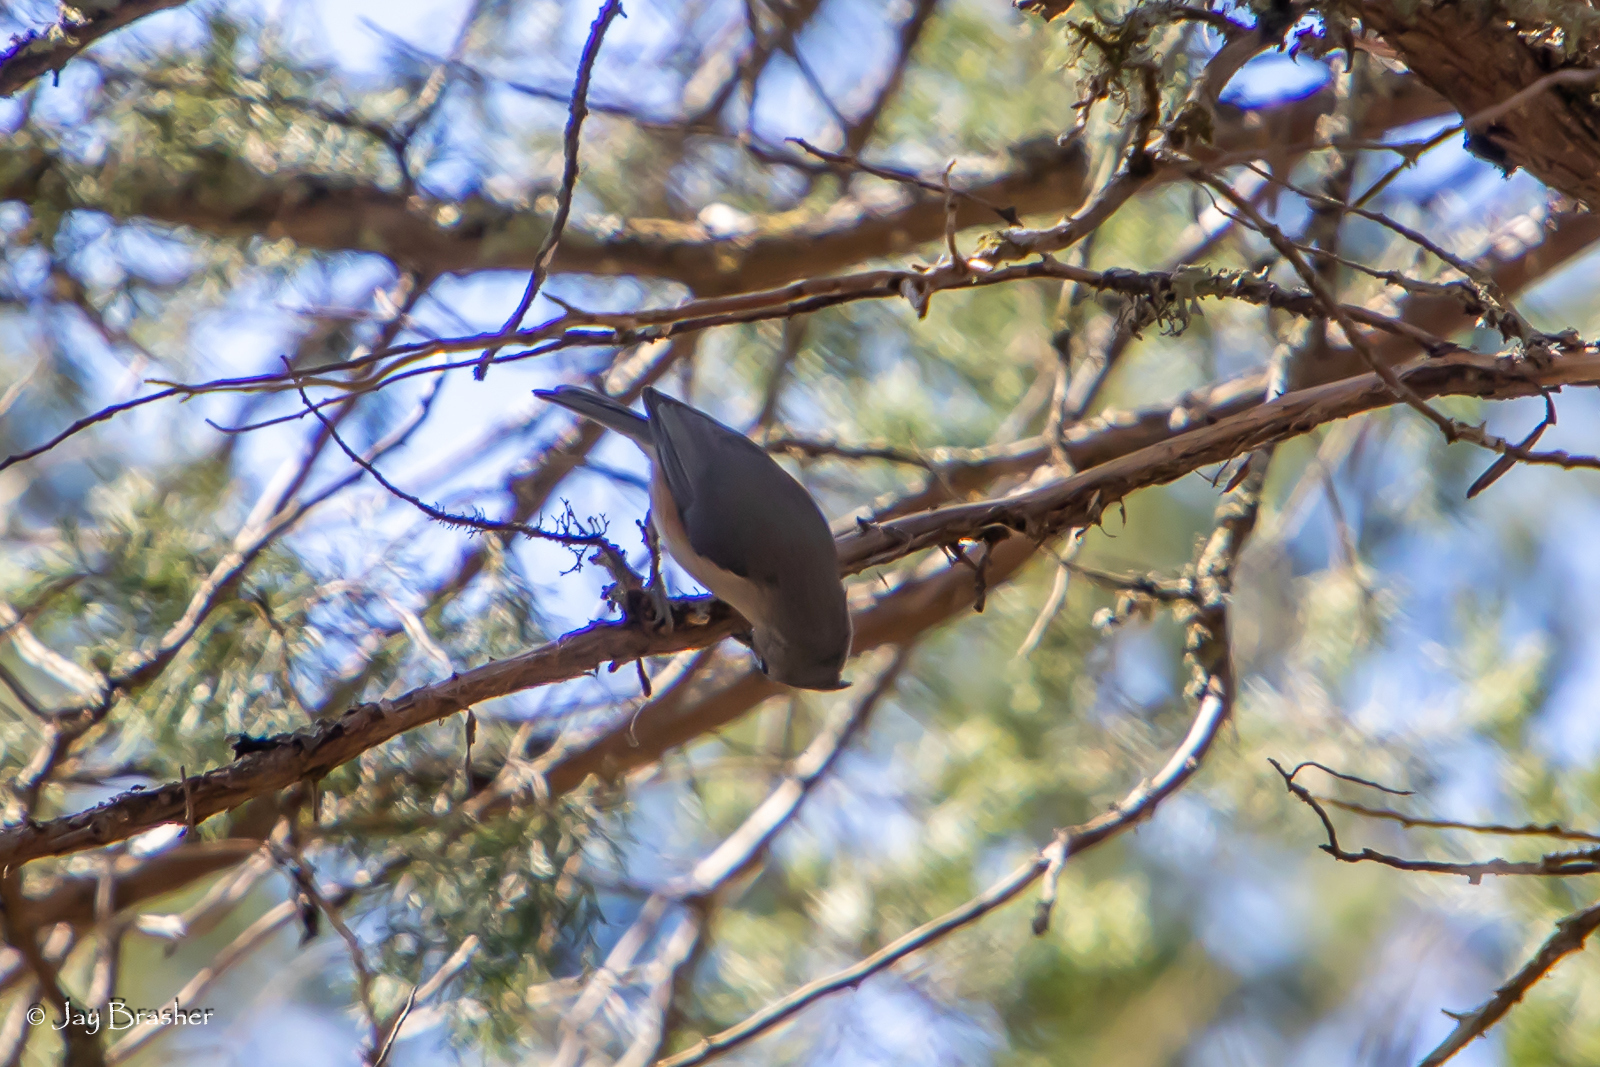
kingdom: Animalia
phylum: Chordata
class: Aves
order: Passeriformes
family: Paridae
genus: Baeolophus
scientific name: Baeolophus bicolor
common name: Tufted titmouse
